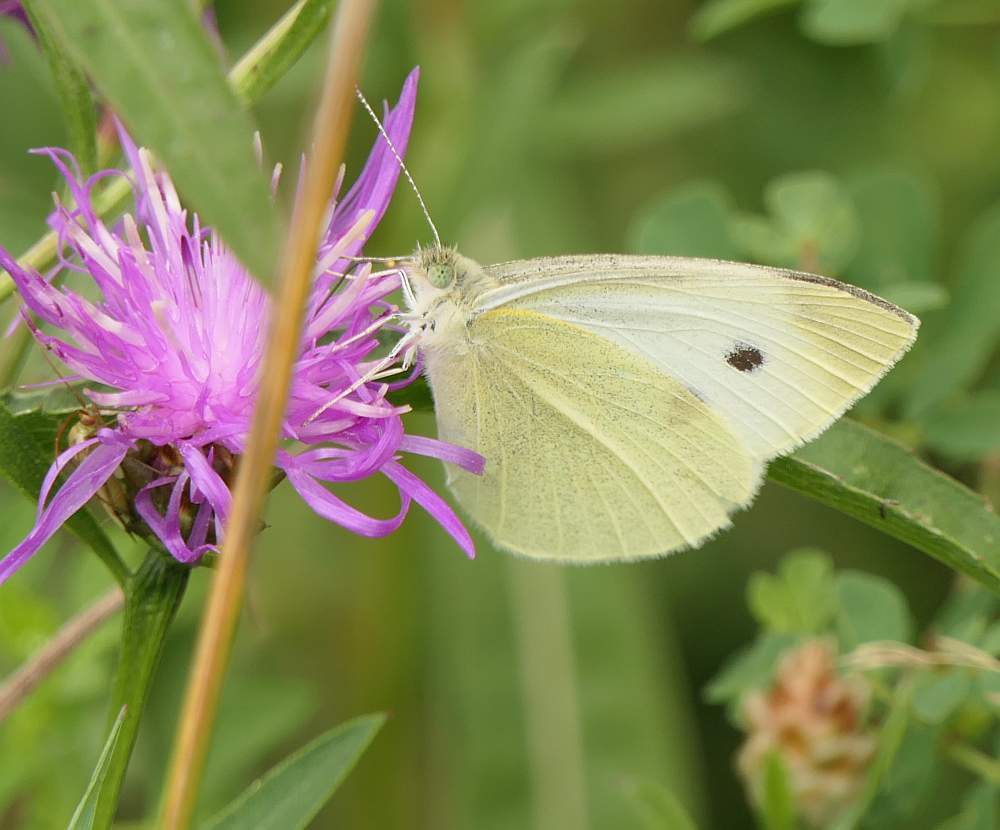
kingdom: Animalia
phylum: Arthropoda
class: Insecta
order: Lepidoptera
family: Pieridae
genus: Pieris
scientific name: Pieris rapae
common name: Small white
